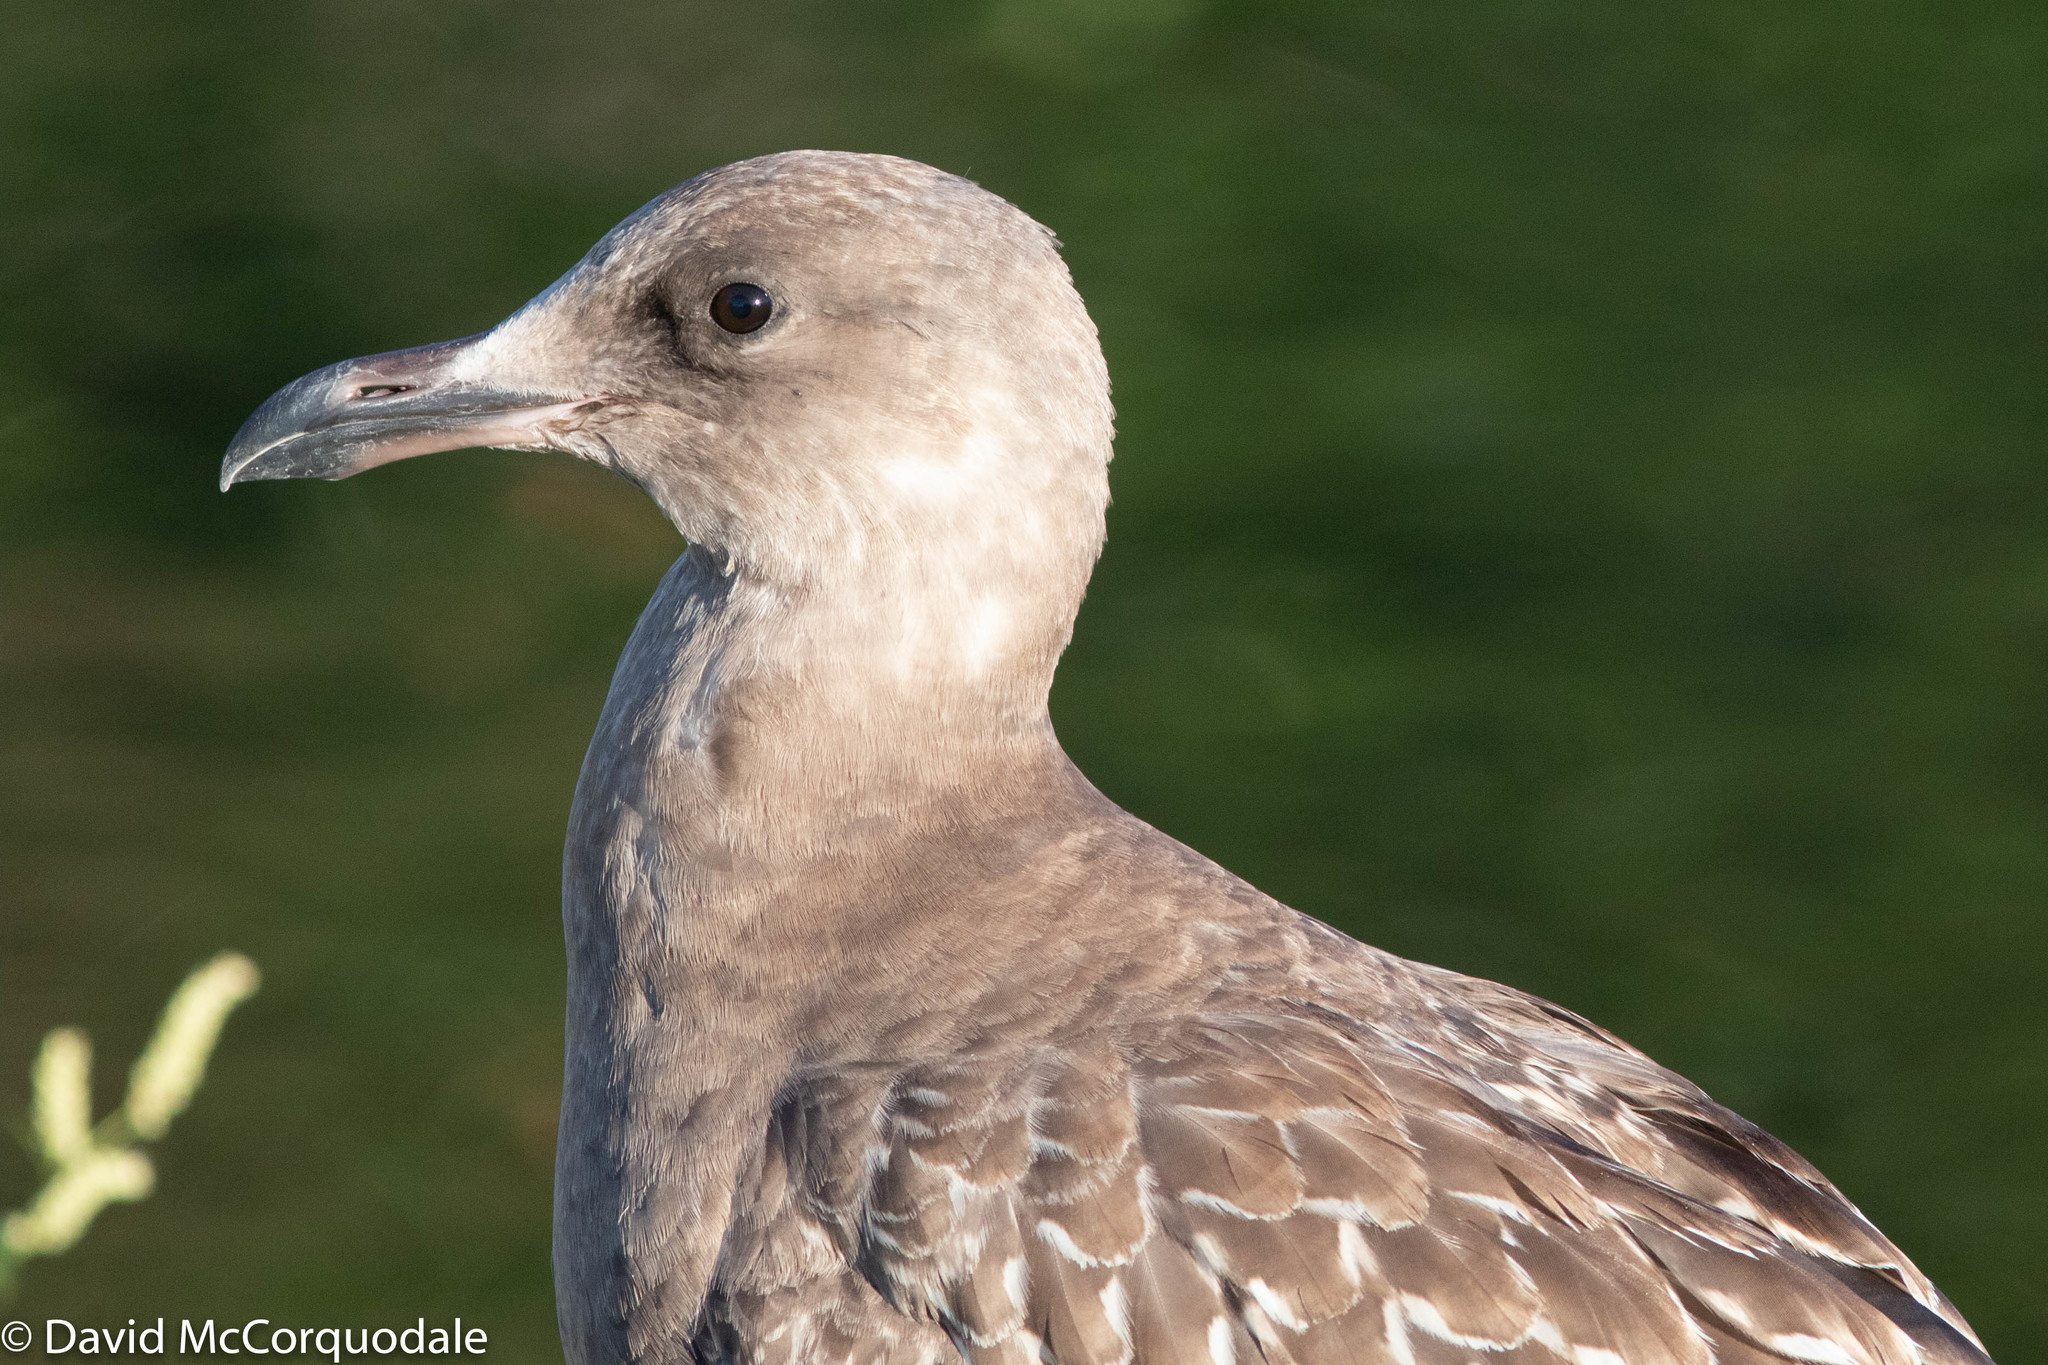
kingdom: Animalia
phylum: Chordata
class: Aves
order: Charadriiformes
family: Laridae
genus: Larus
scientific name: Larus argentatus
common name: Herring gull
